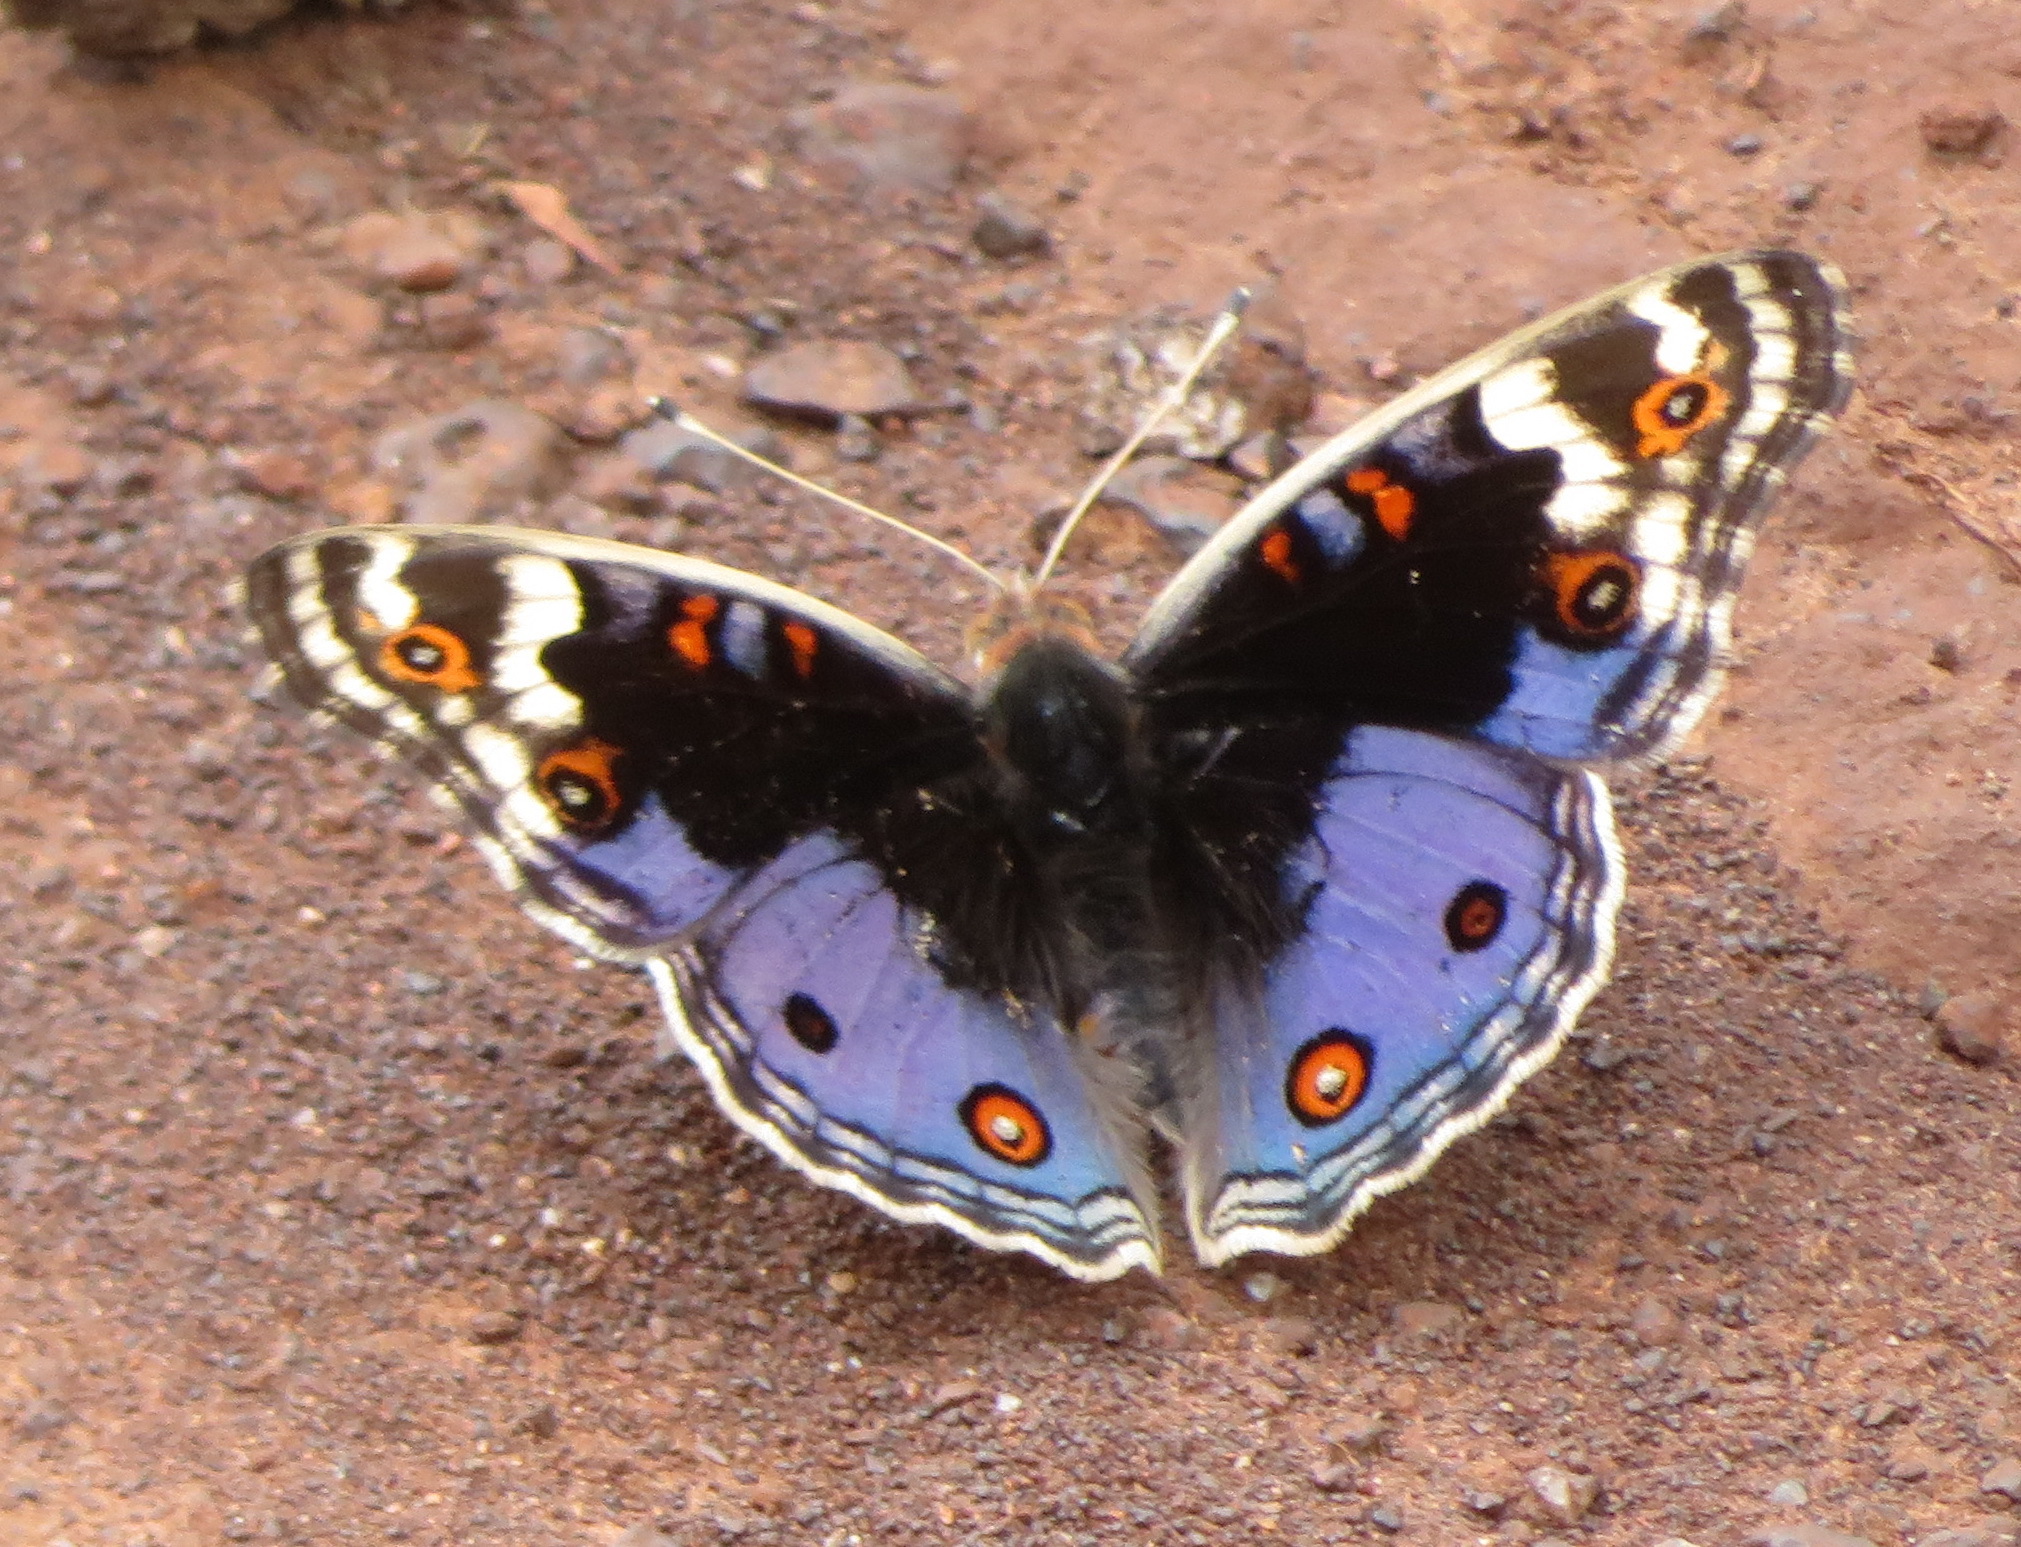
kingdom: Animalia
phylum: Arthropoda
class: Insecta
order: Lepidoptera
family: Nymphalidae
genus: Junonia
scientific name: Junonia orithya
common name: Blue pansy
